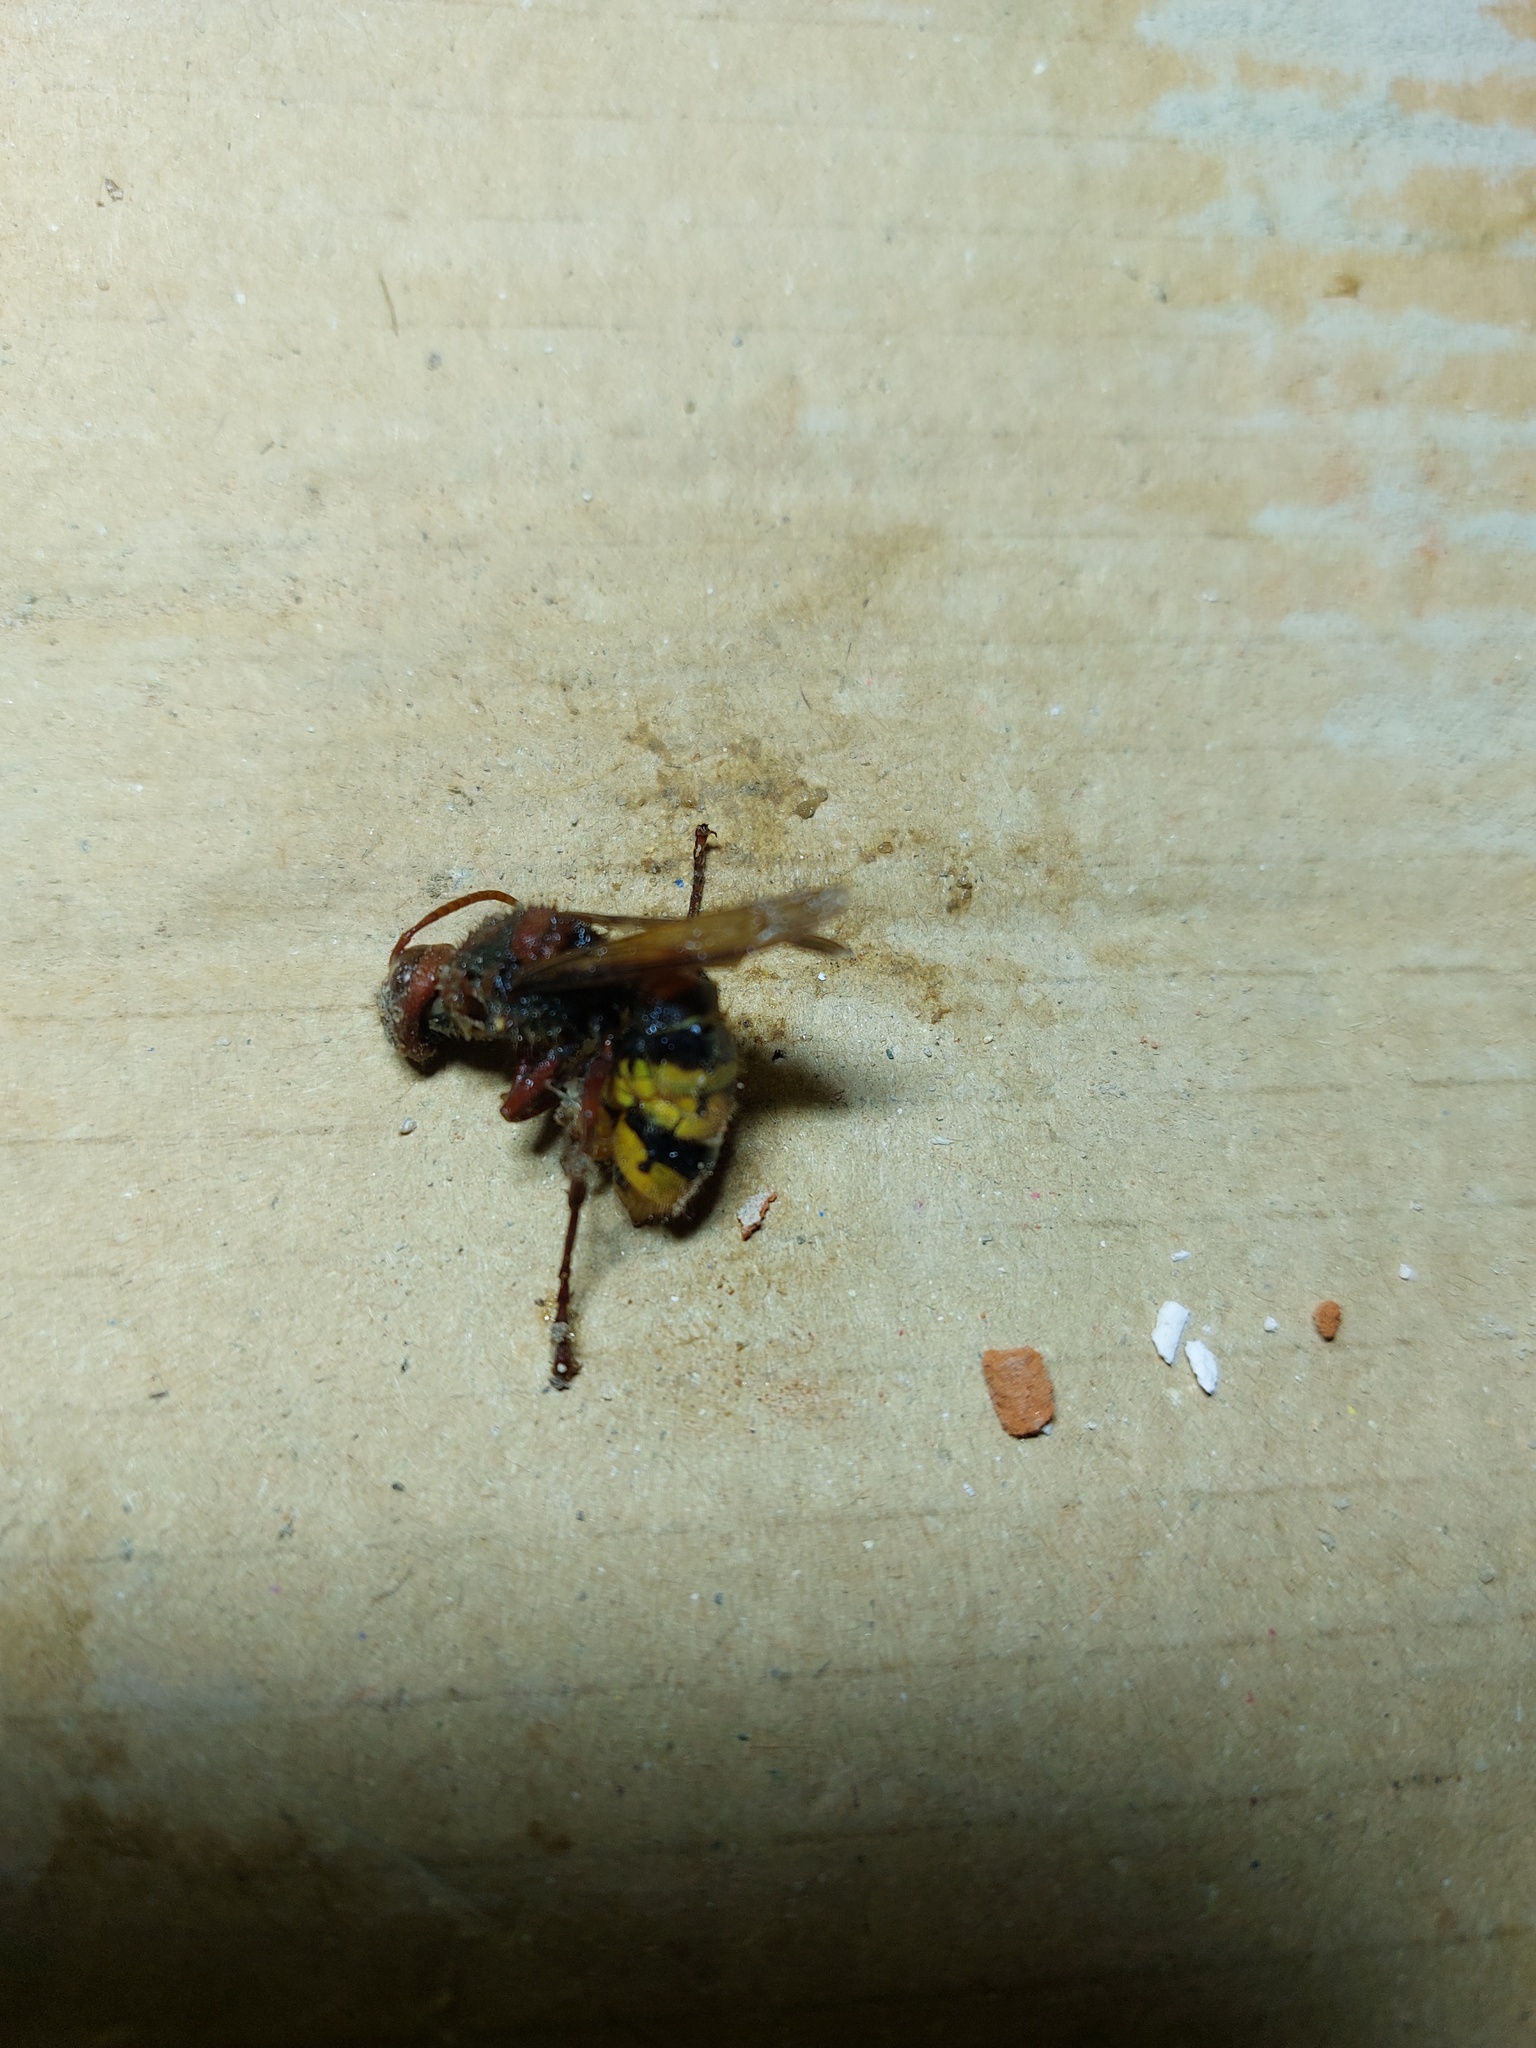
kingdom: Animalia
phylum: Arthropoda
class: Insecta
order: Hymenoptera
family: Vespidae
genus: Vespa
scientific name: Vespa crabro
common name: Hornet
